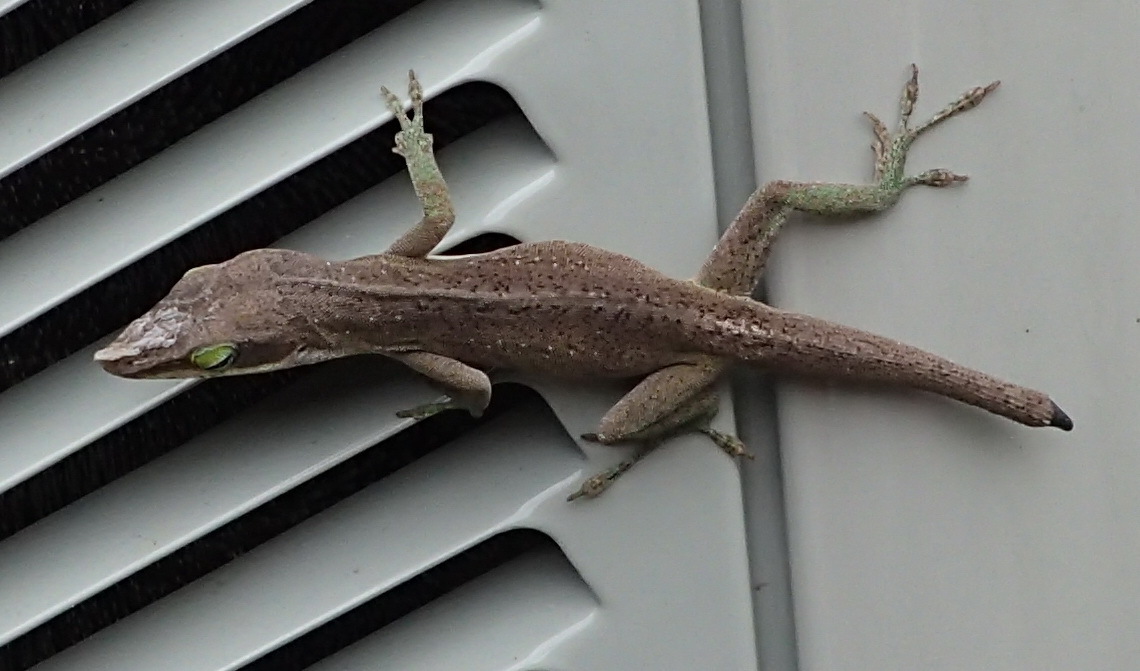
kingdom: Animalia
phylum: Chordata
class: Squamata
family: Dactyloidae
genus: Anolis
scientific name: Anolis carolinensis
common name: Green anole
